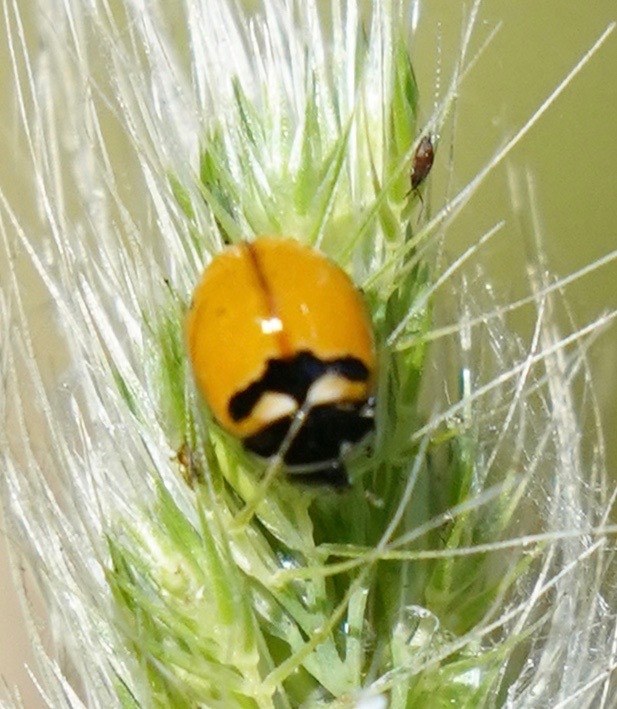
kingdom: Animalia
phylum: Arthropoda
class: Insecta
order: Coleoptera
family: Coccinellidae
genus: Coccinella
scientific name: Coccinella trifasciata
